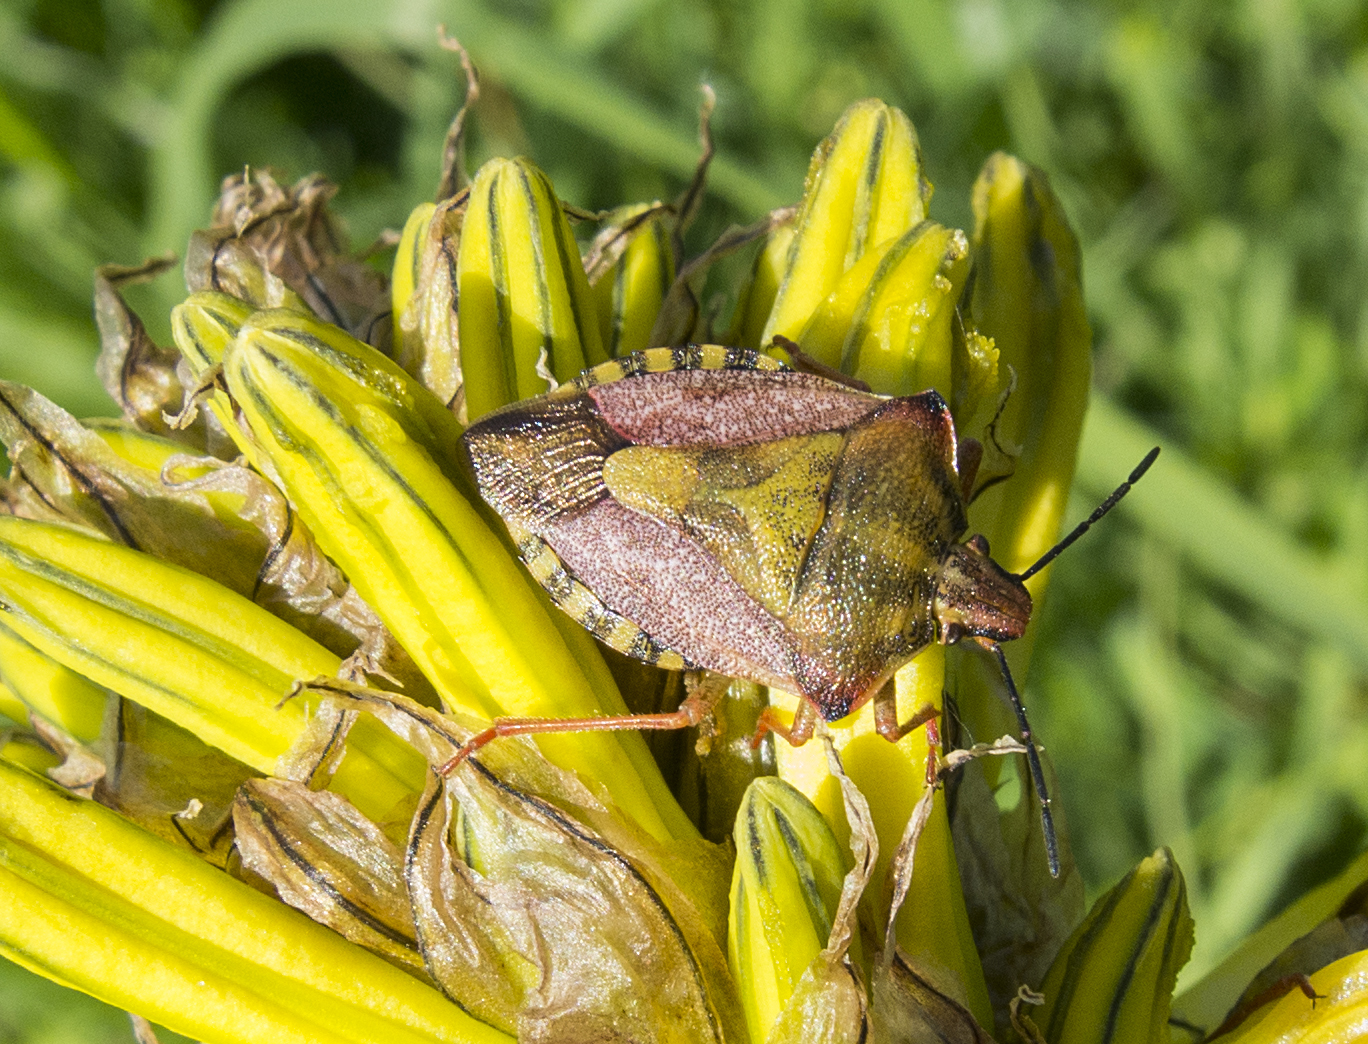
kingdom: Animalia
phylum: Arthropoda
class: Insecta
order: Hemiptera
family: Pentatomidae
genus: Carpocoris
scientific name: Carpocoris purpureipennis
